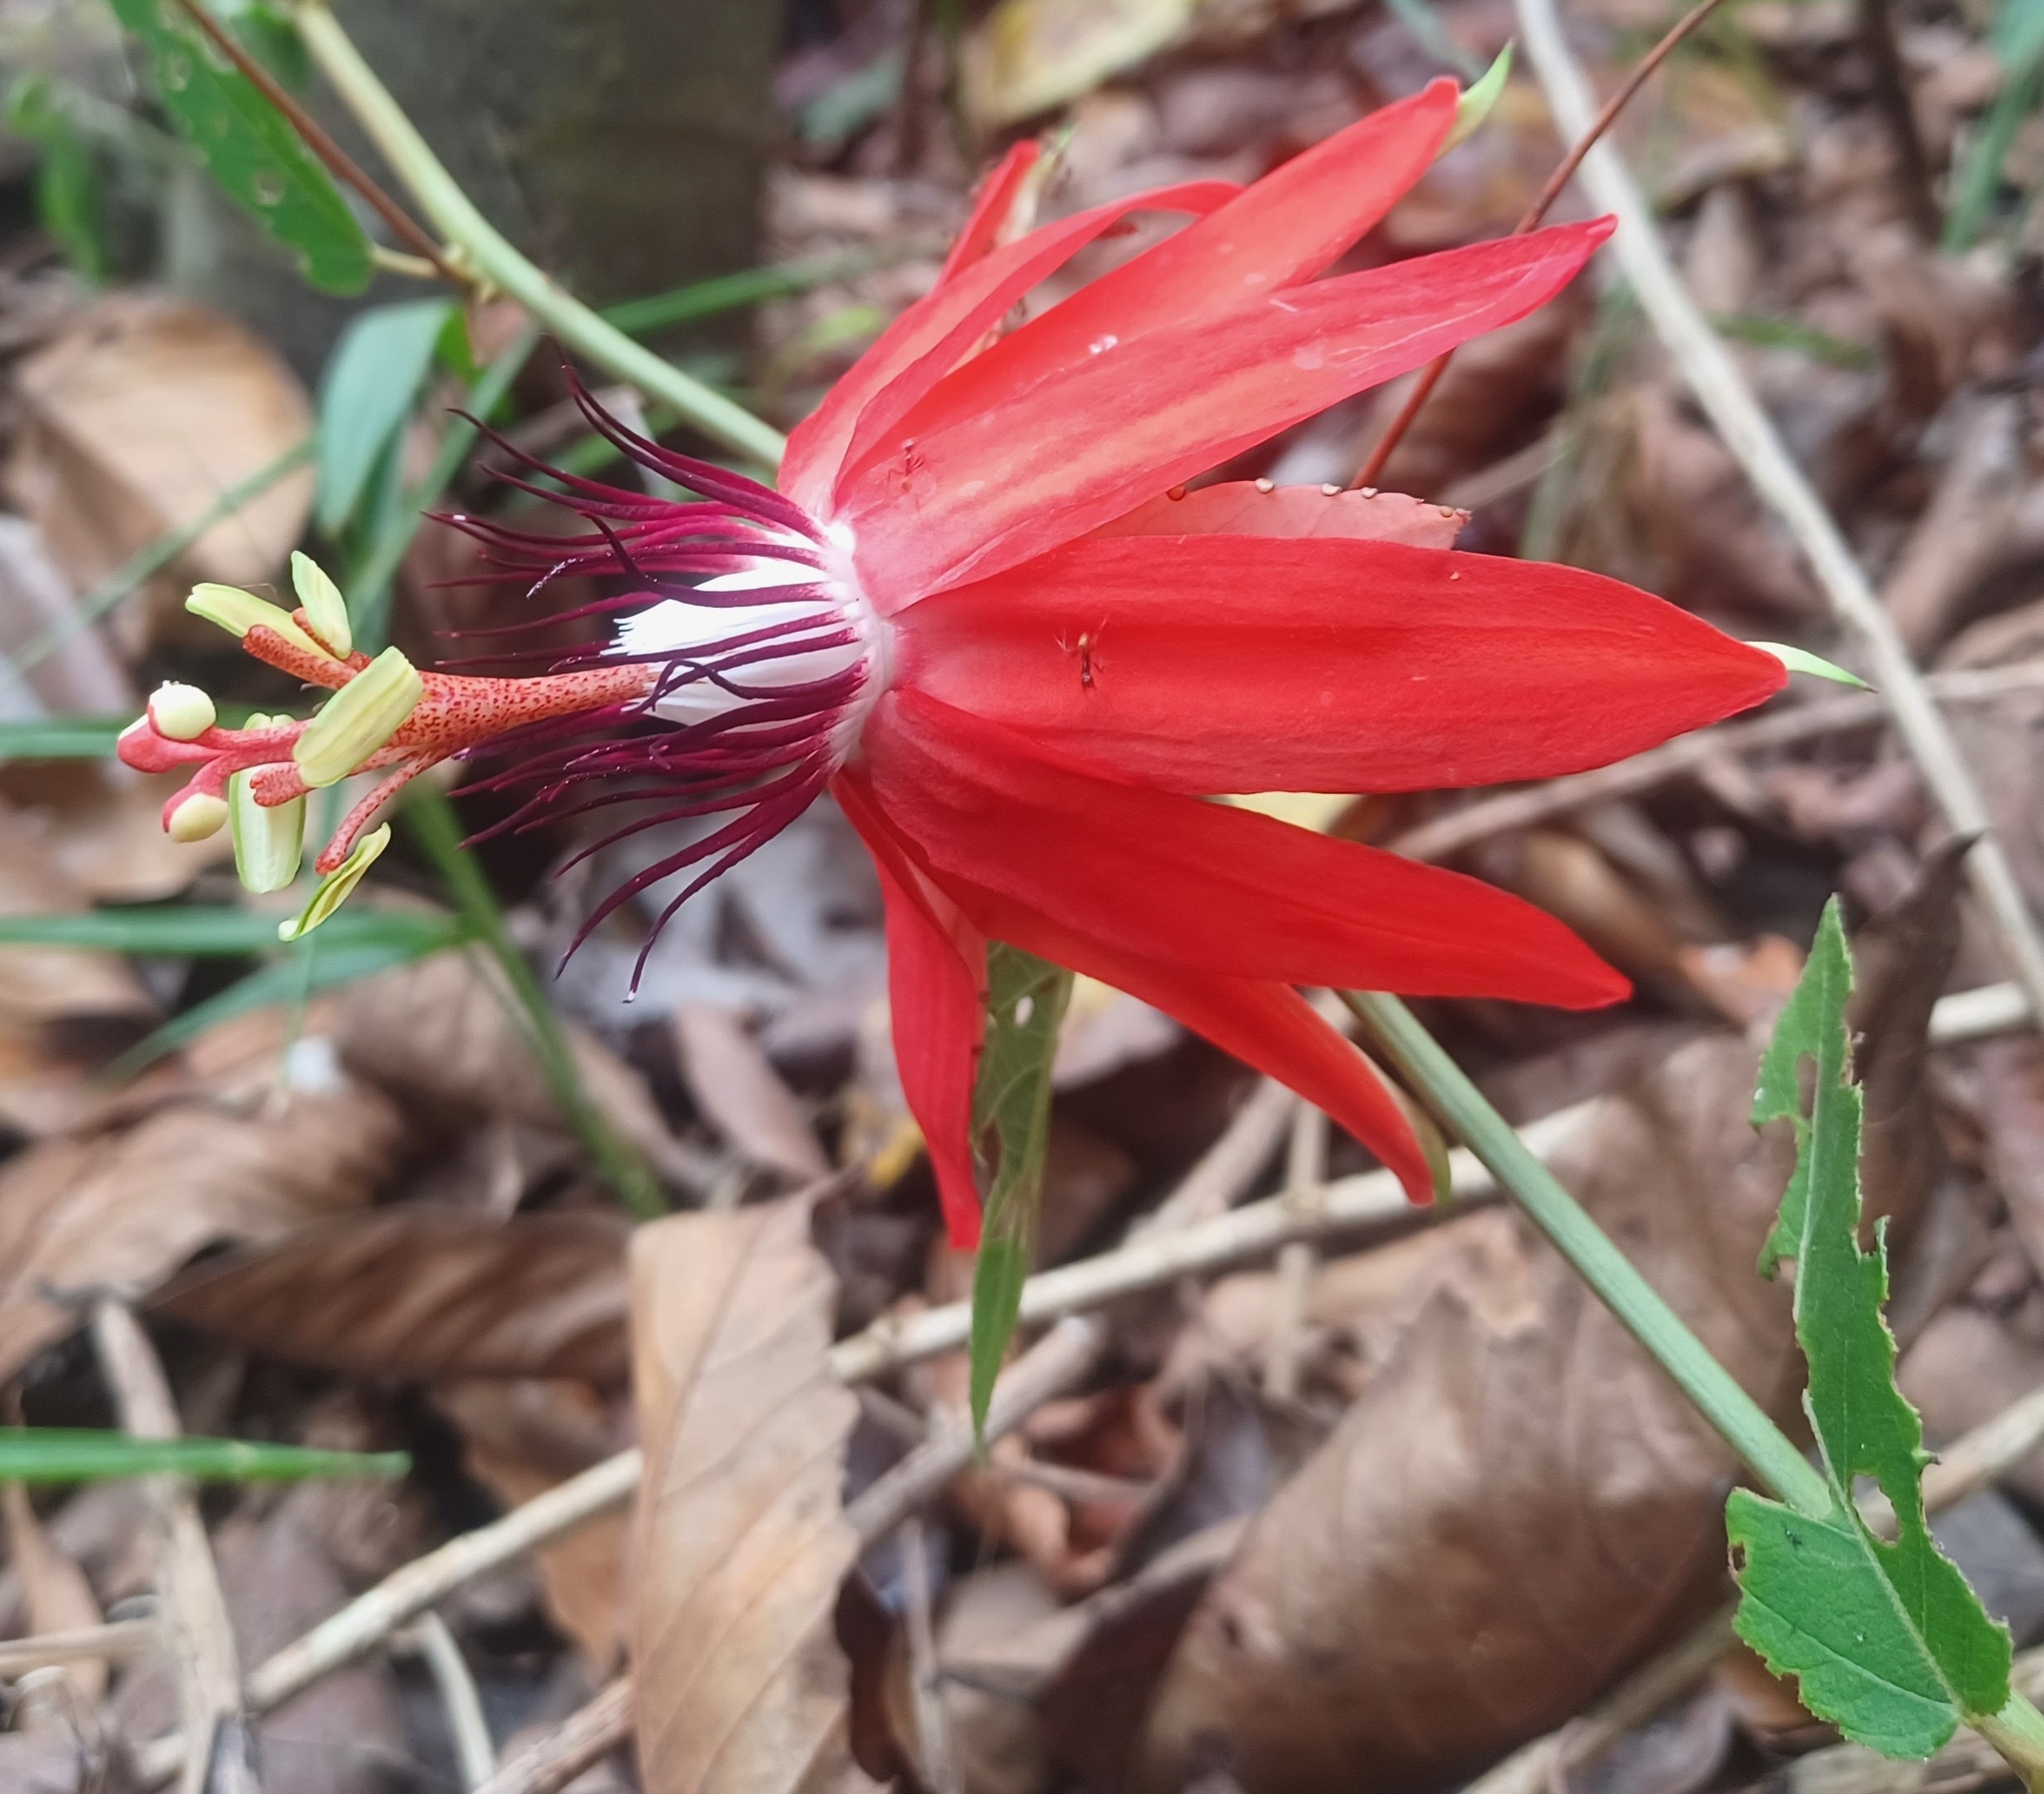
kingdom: Plantae
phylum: Tracheophyta
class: Magnoliopsida
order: Malpighiales
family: Passifloraceae
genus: Passiflora
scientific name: Passiflora miniata
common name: Red granadilla
